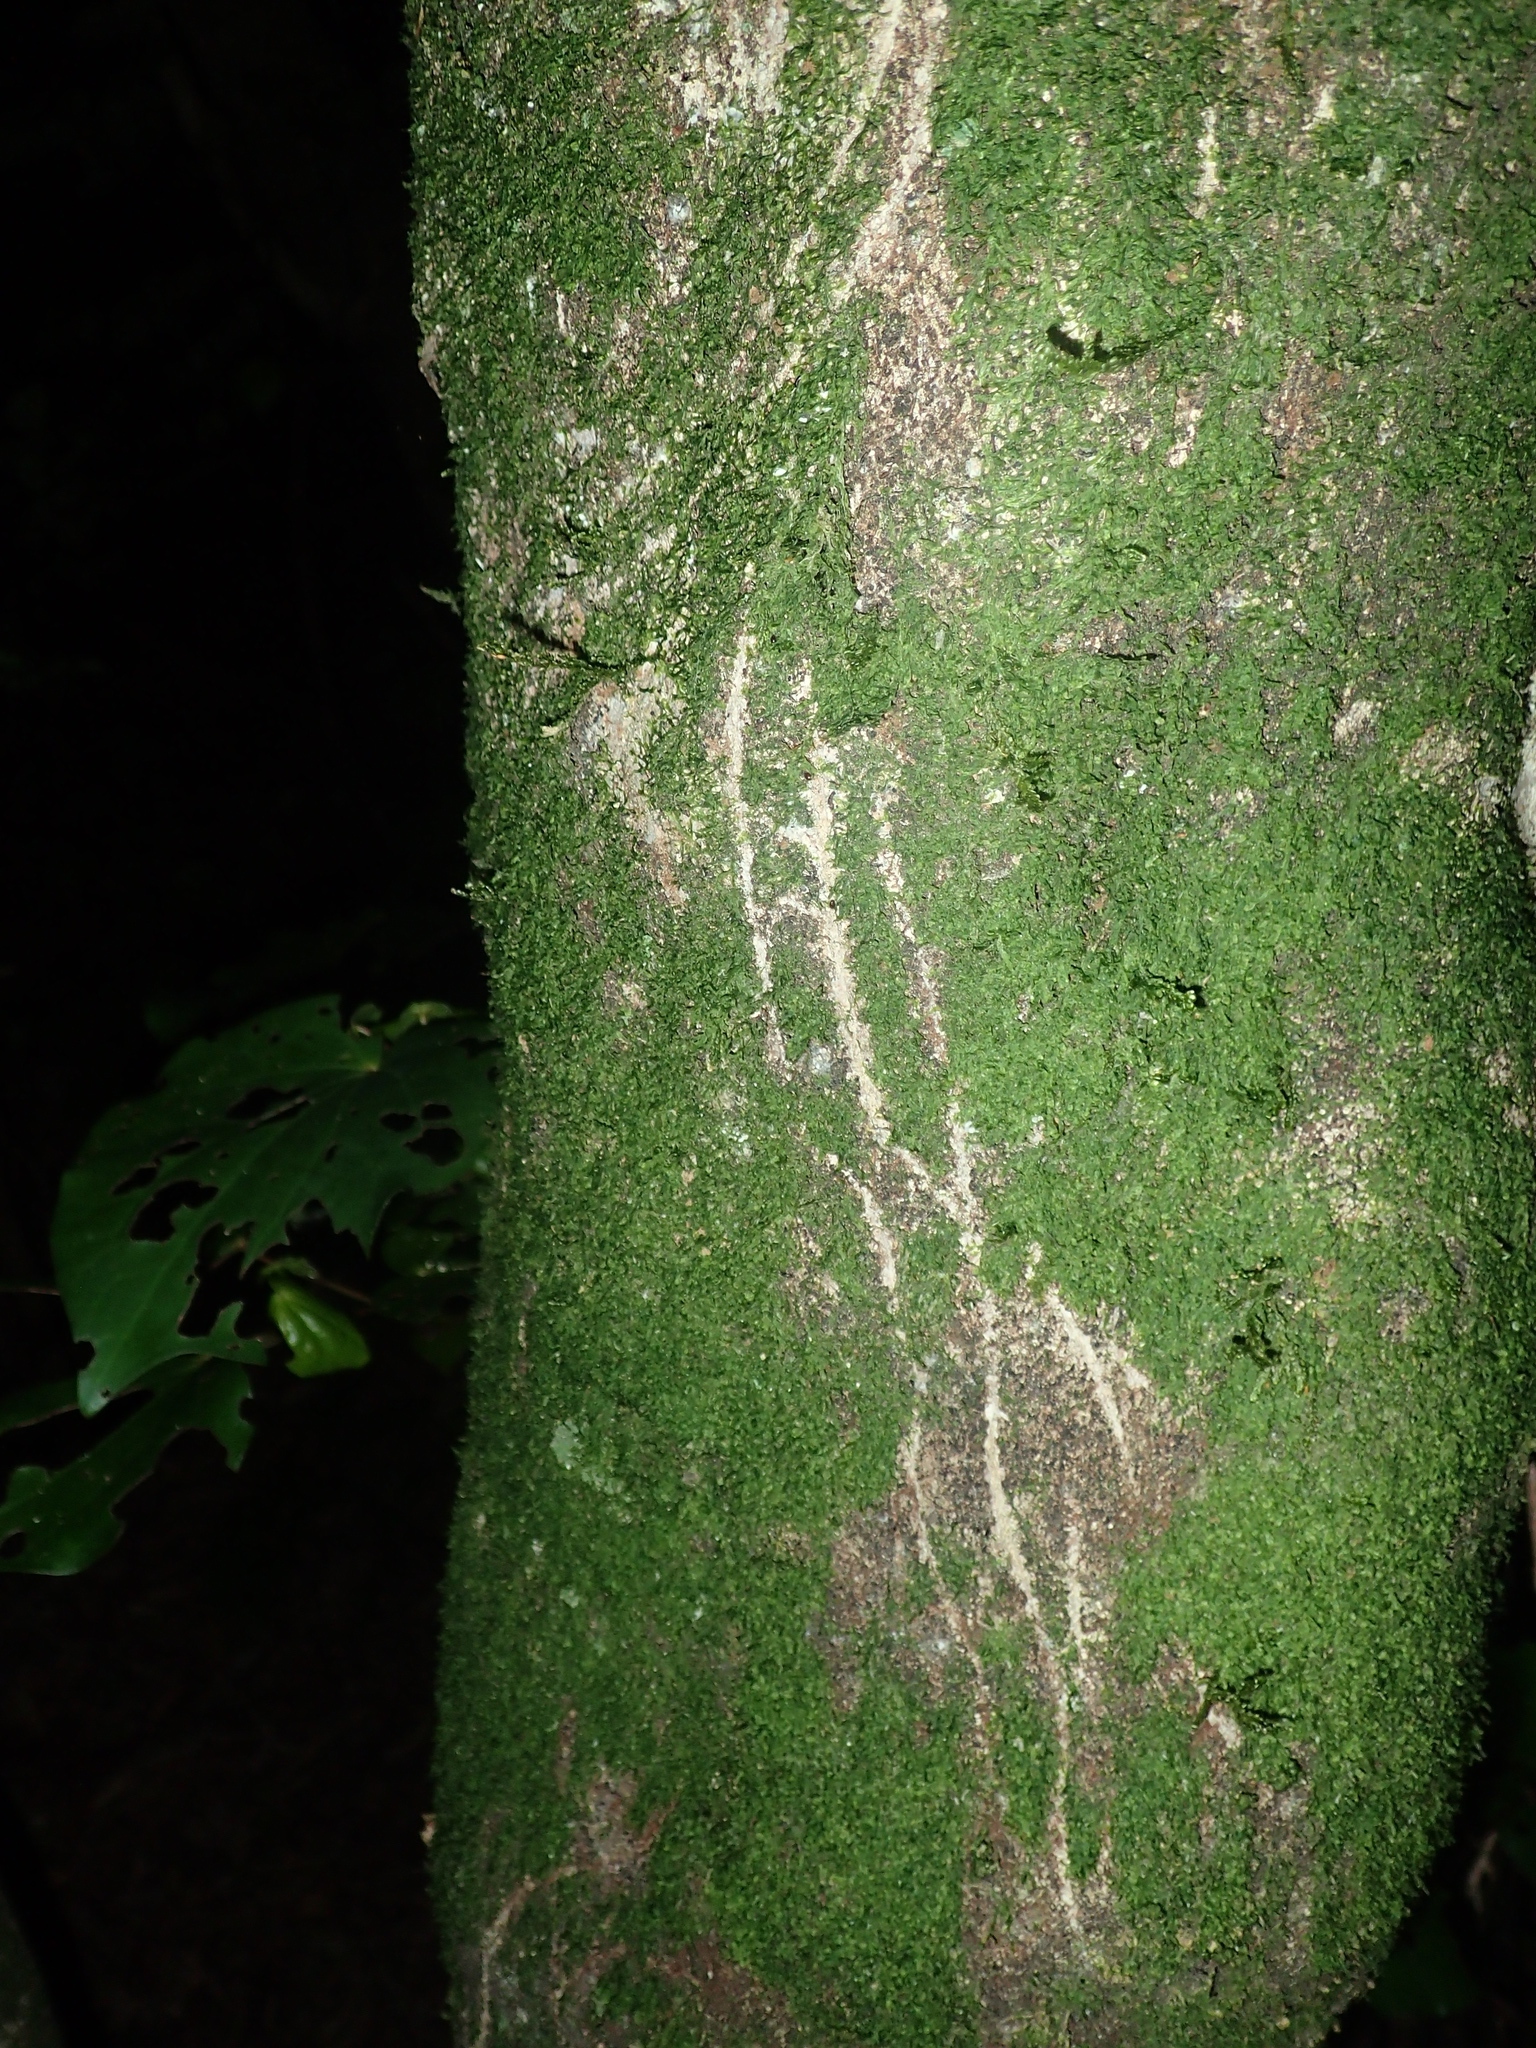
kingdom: Animalia
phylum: Chordata
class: Mammalia
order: Diprotodontia
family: Phalangeridae
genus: Trichosurus
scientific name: Trichosurus vulpecula
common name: Common brushtail
